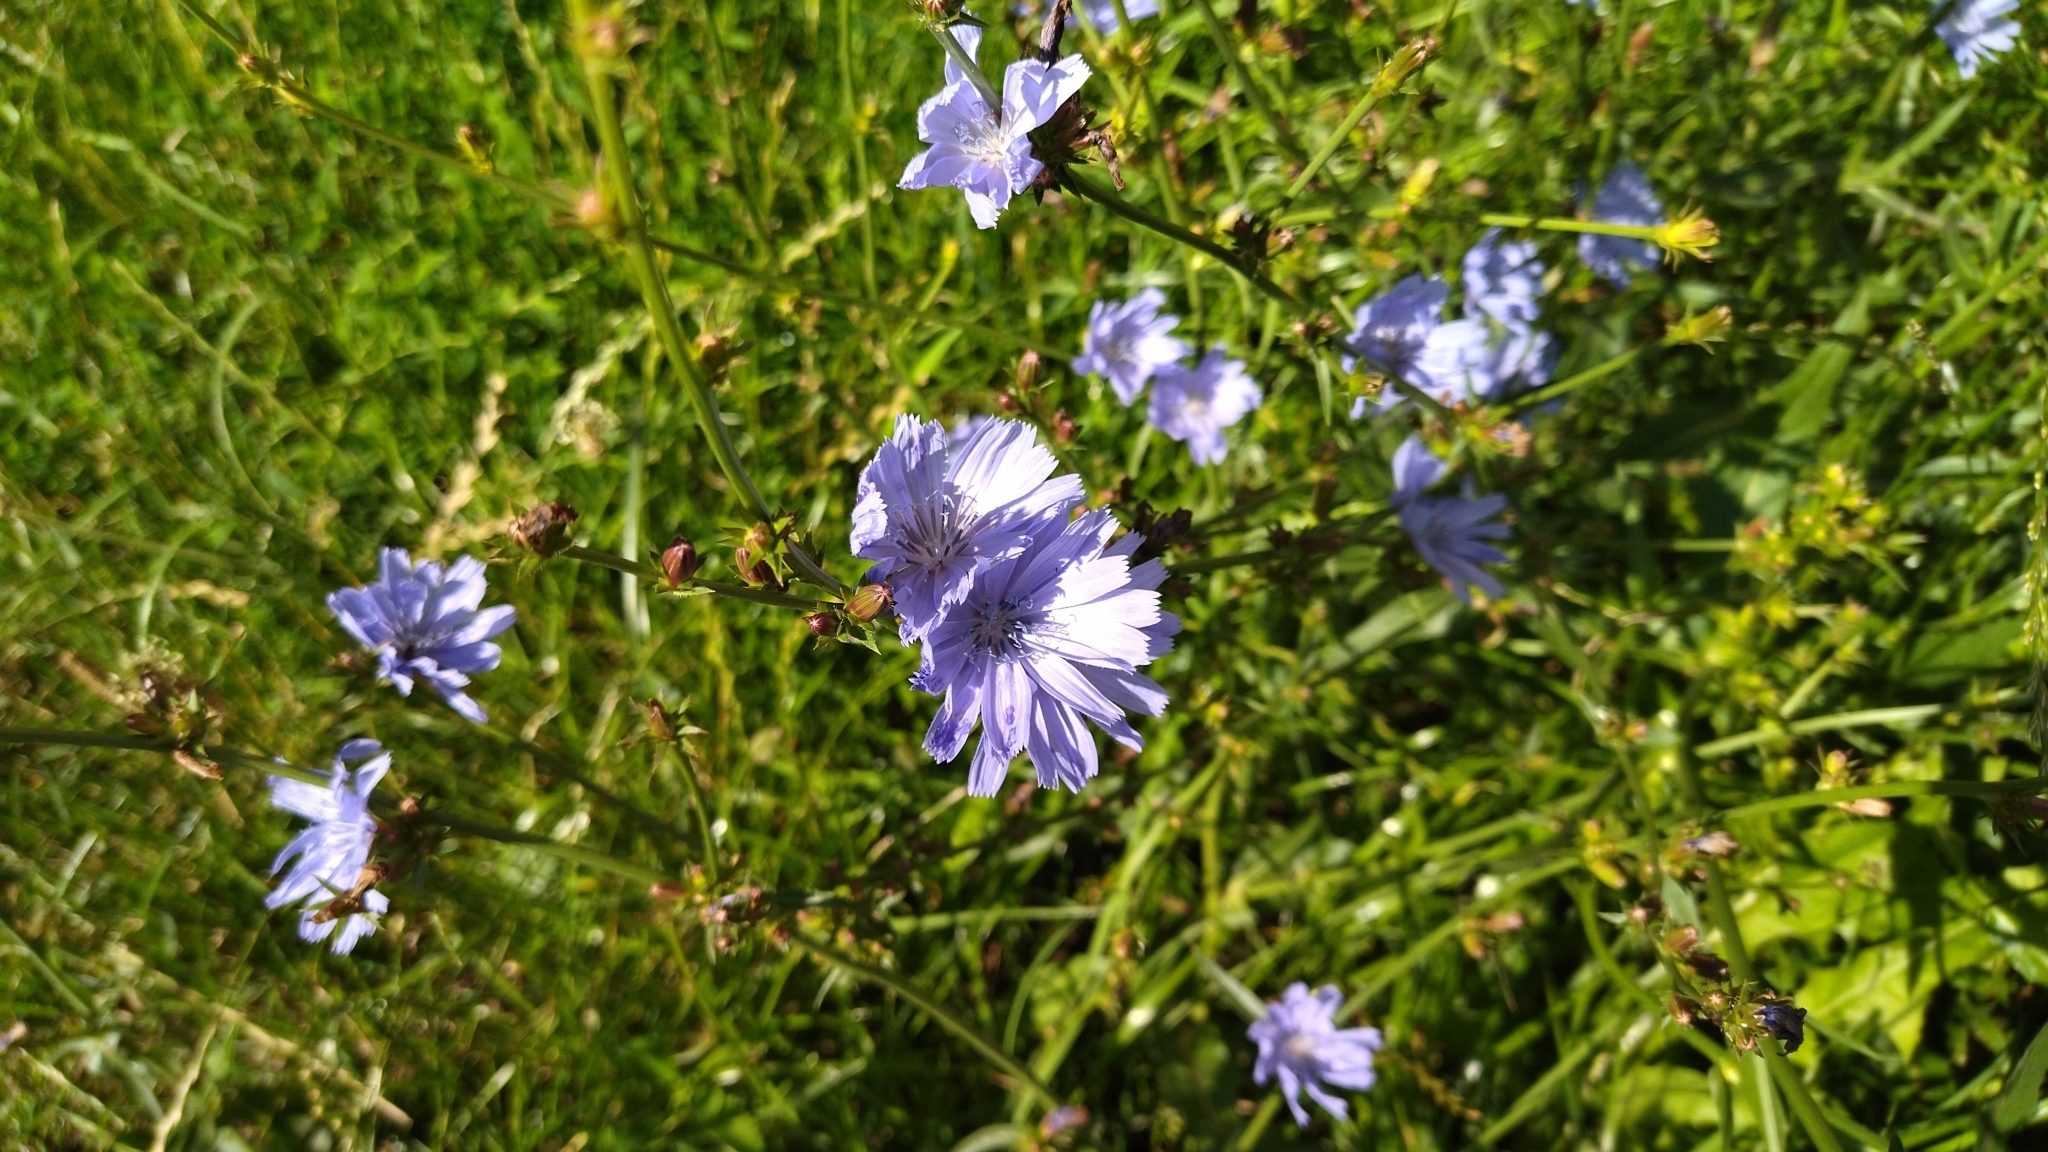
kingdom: Plantae
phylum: Tracheophyta
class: Magnoliopsida
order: Asterales
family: Asteraceae
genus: Cichorium
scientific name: Cichorium intybus
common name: Chicory
